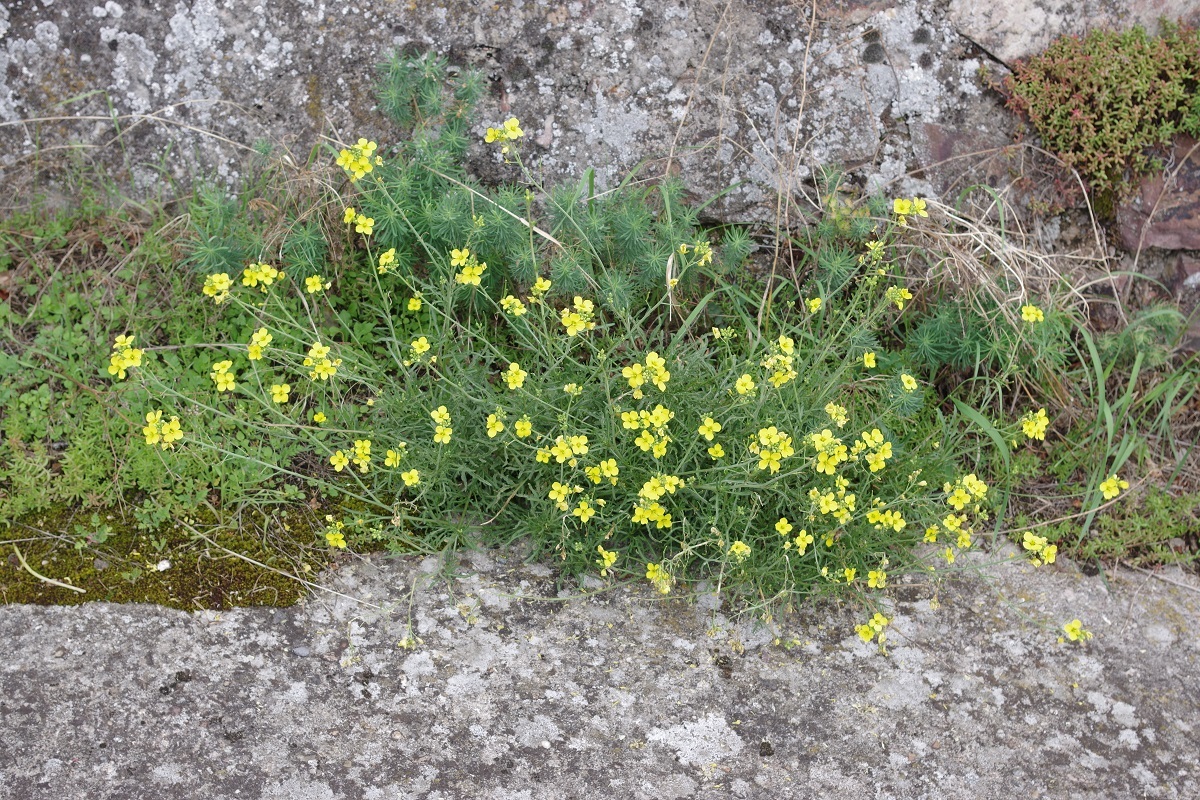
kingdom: Plantae
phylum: Tracheophyta
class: Magnoliopsida
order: Brassicales
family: Brassicaceae
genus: Diplotaxis
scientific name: Diplotaxis tenuifolia
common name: Perennial wall-rocket
